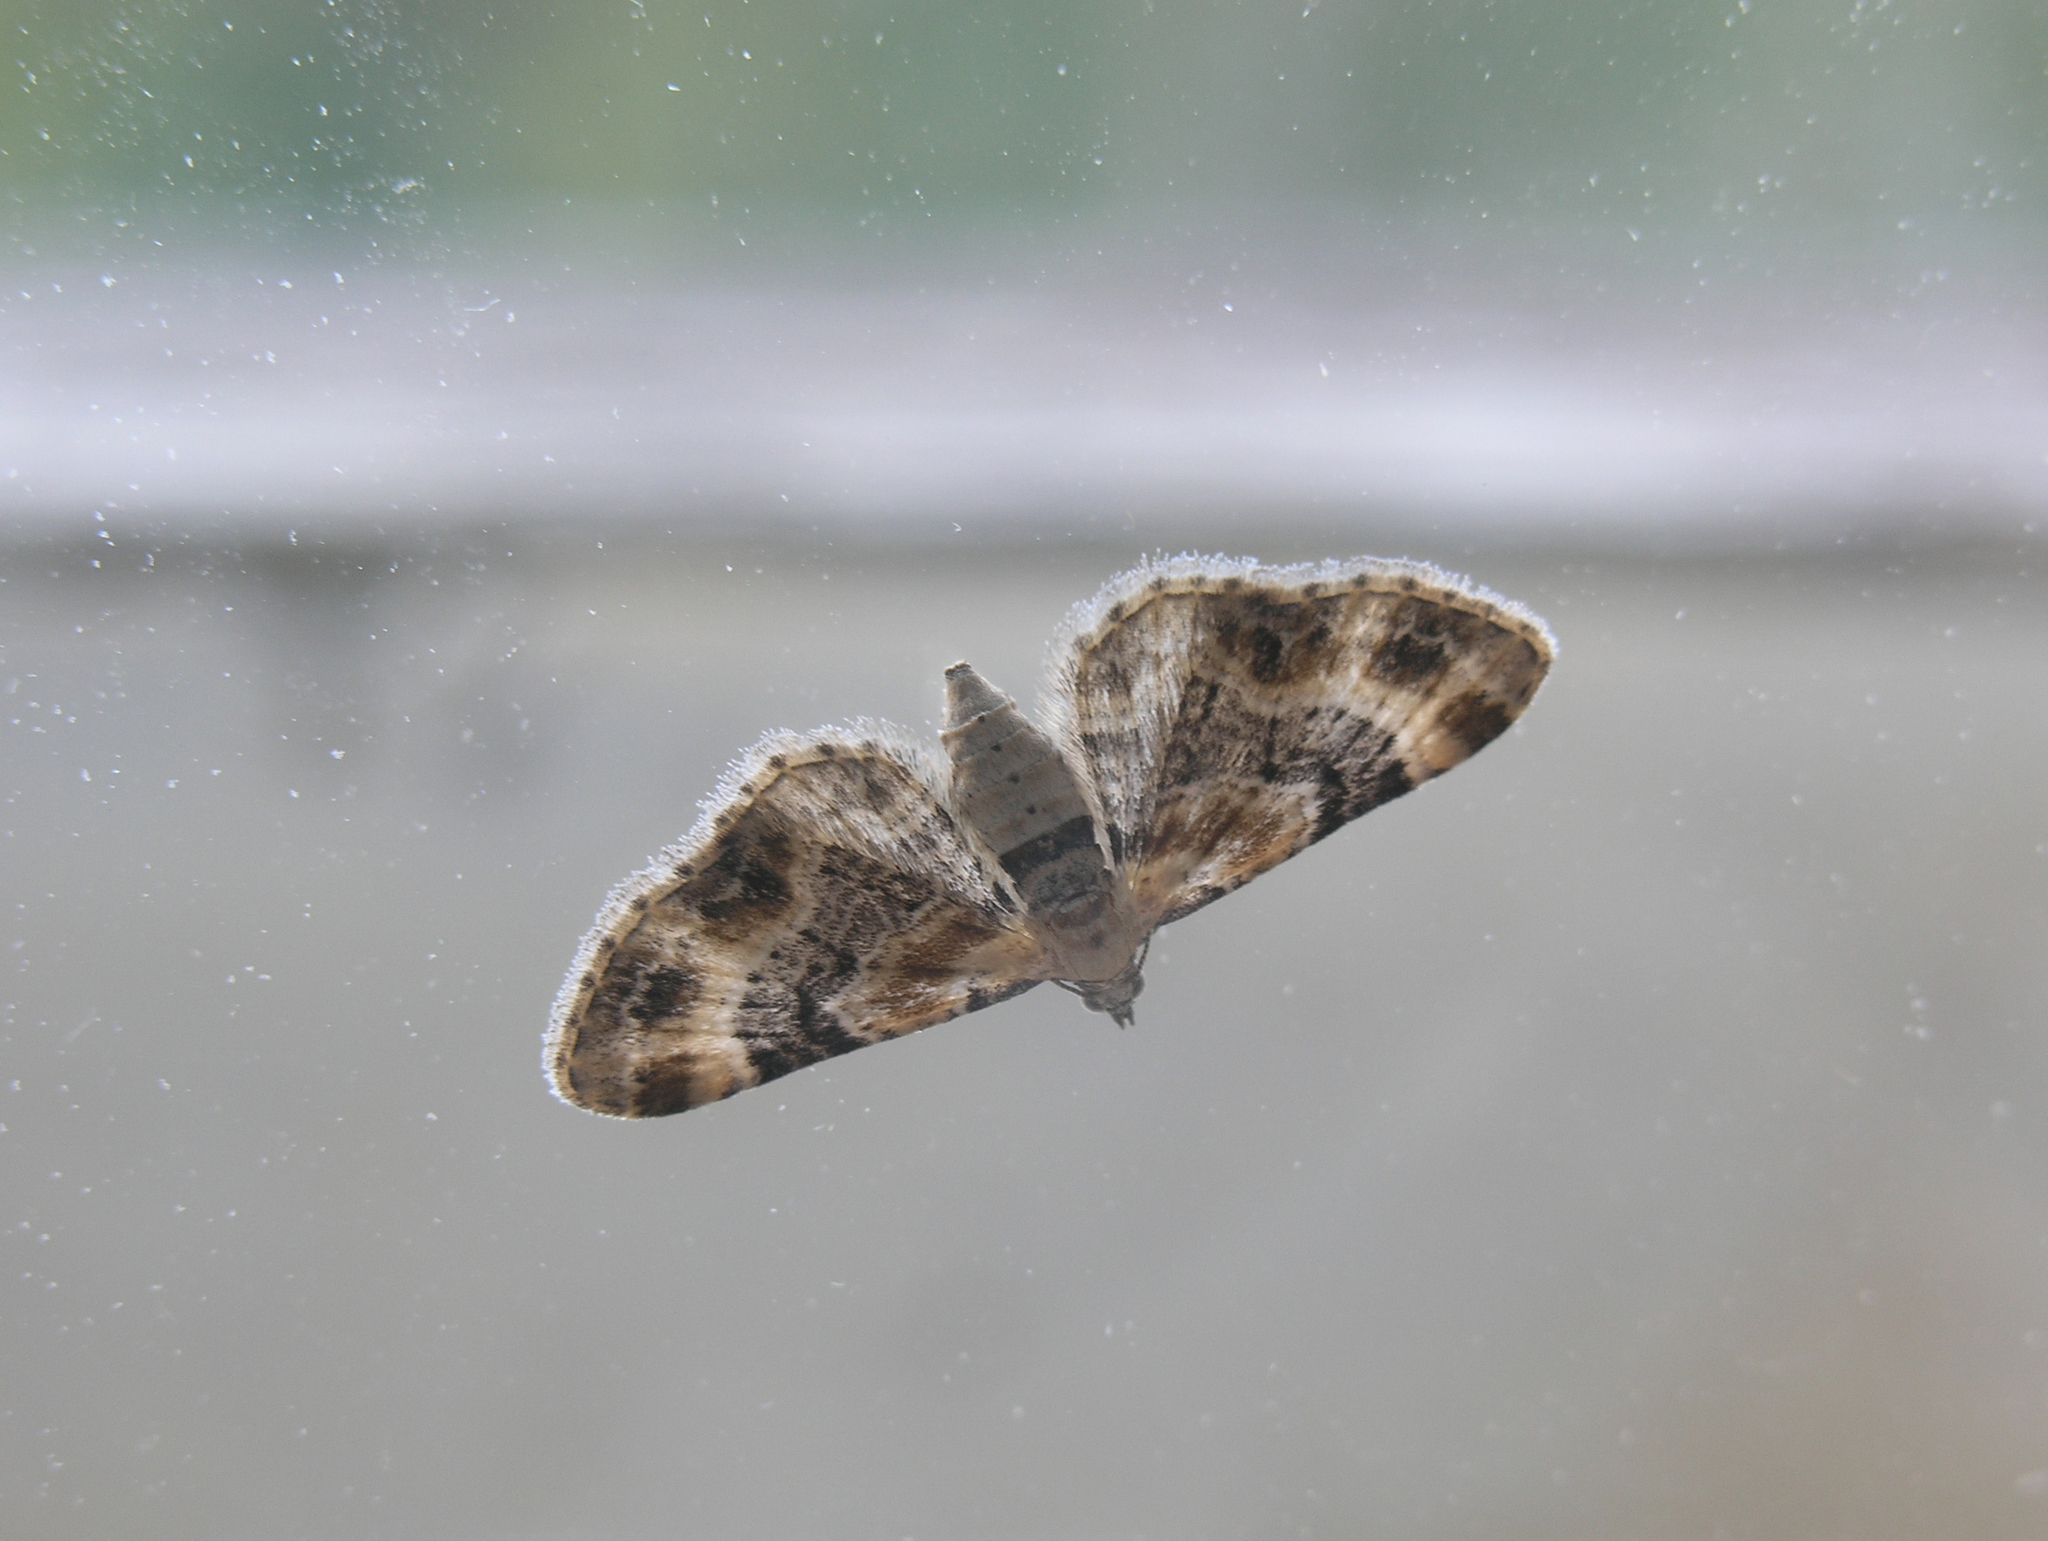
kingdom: Animalia
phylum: Arthropoda
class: Insecta
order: Lepidoptera
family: Geometridae
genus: Eupithecia
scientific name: Eupithecia linariata
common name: Toadflax pug
